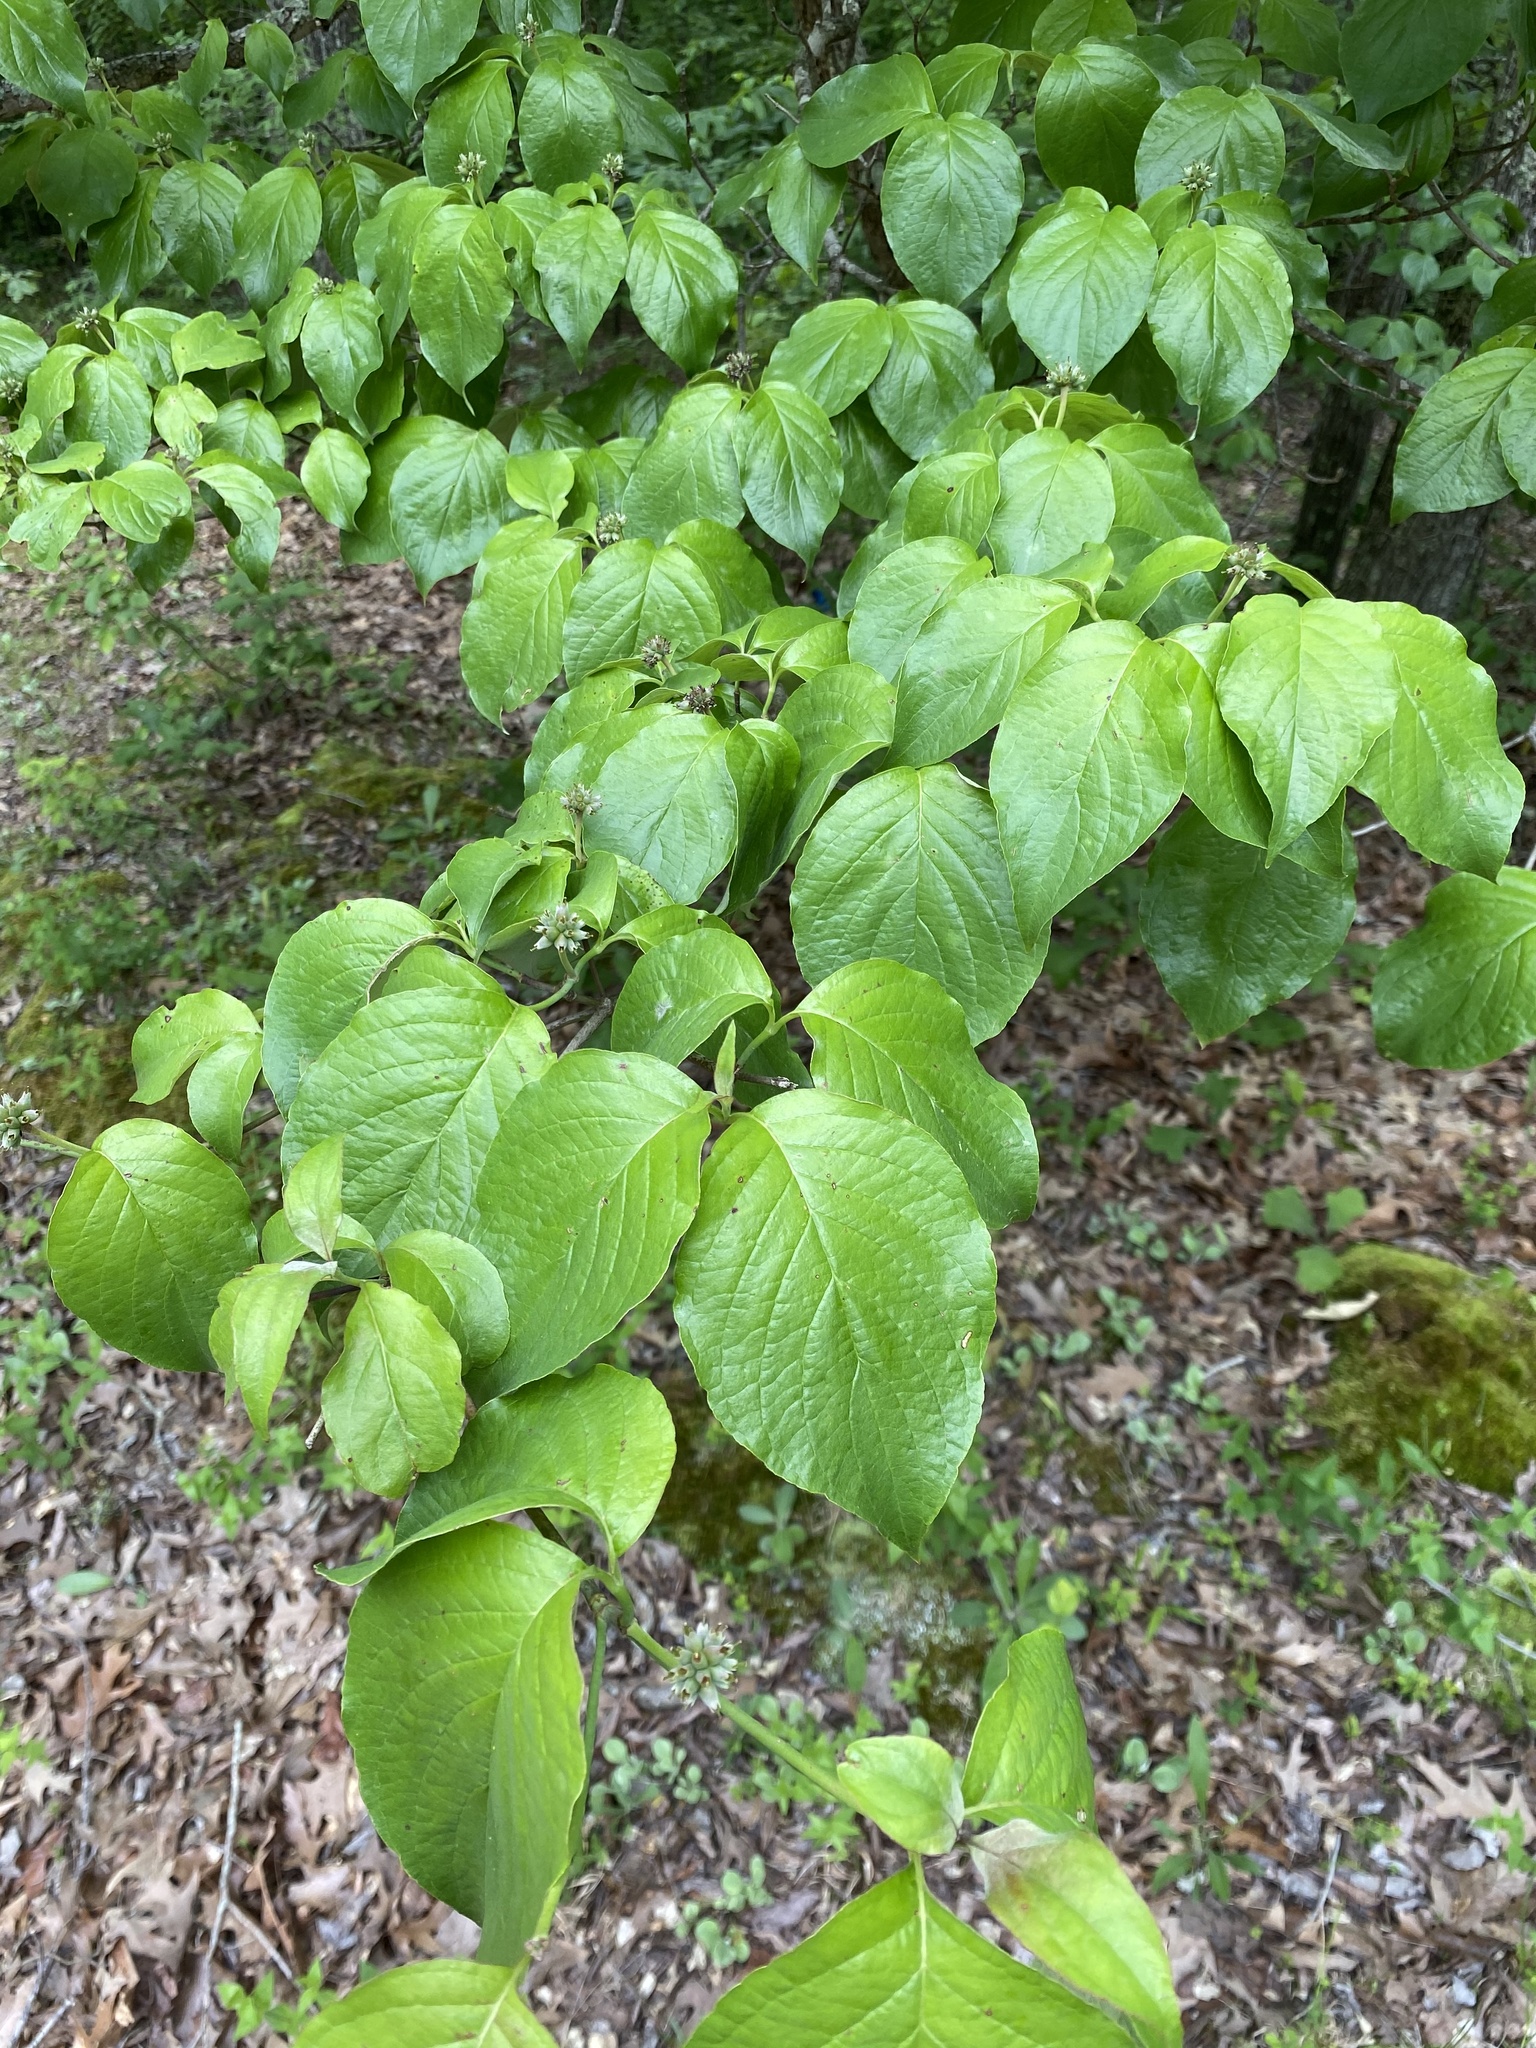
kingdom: Plantae
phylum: Tracheophyta
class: Magnoliopsida
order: Cornales
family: Cornaceae
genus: Cornus
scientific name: Cornus florida
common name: Flowering dogwood
